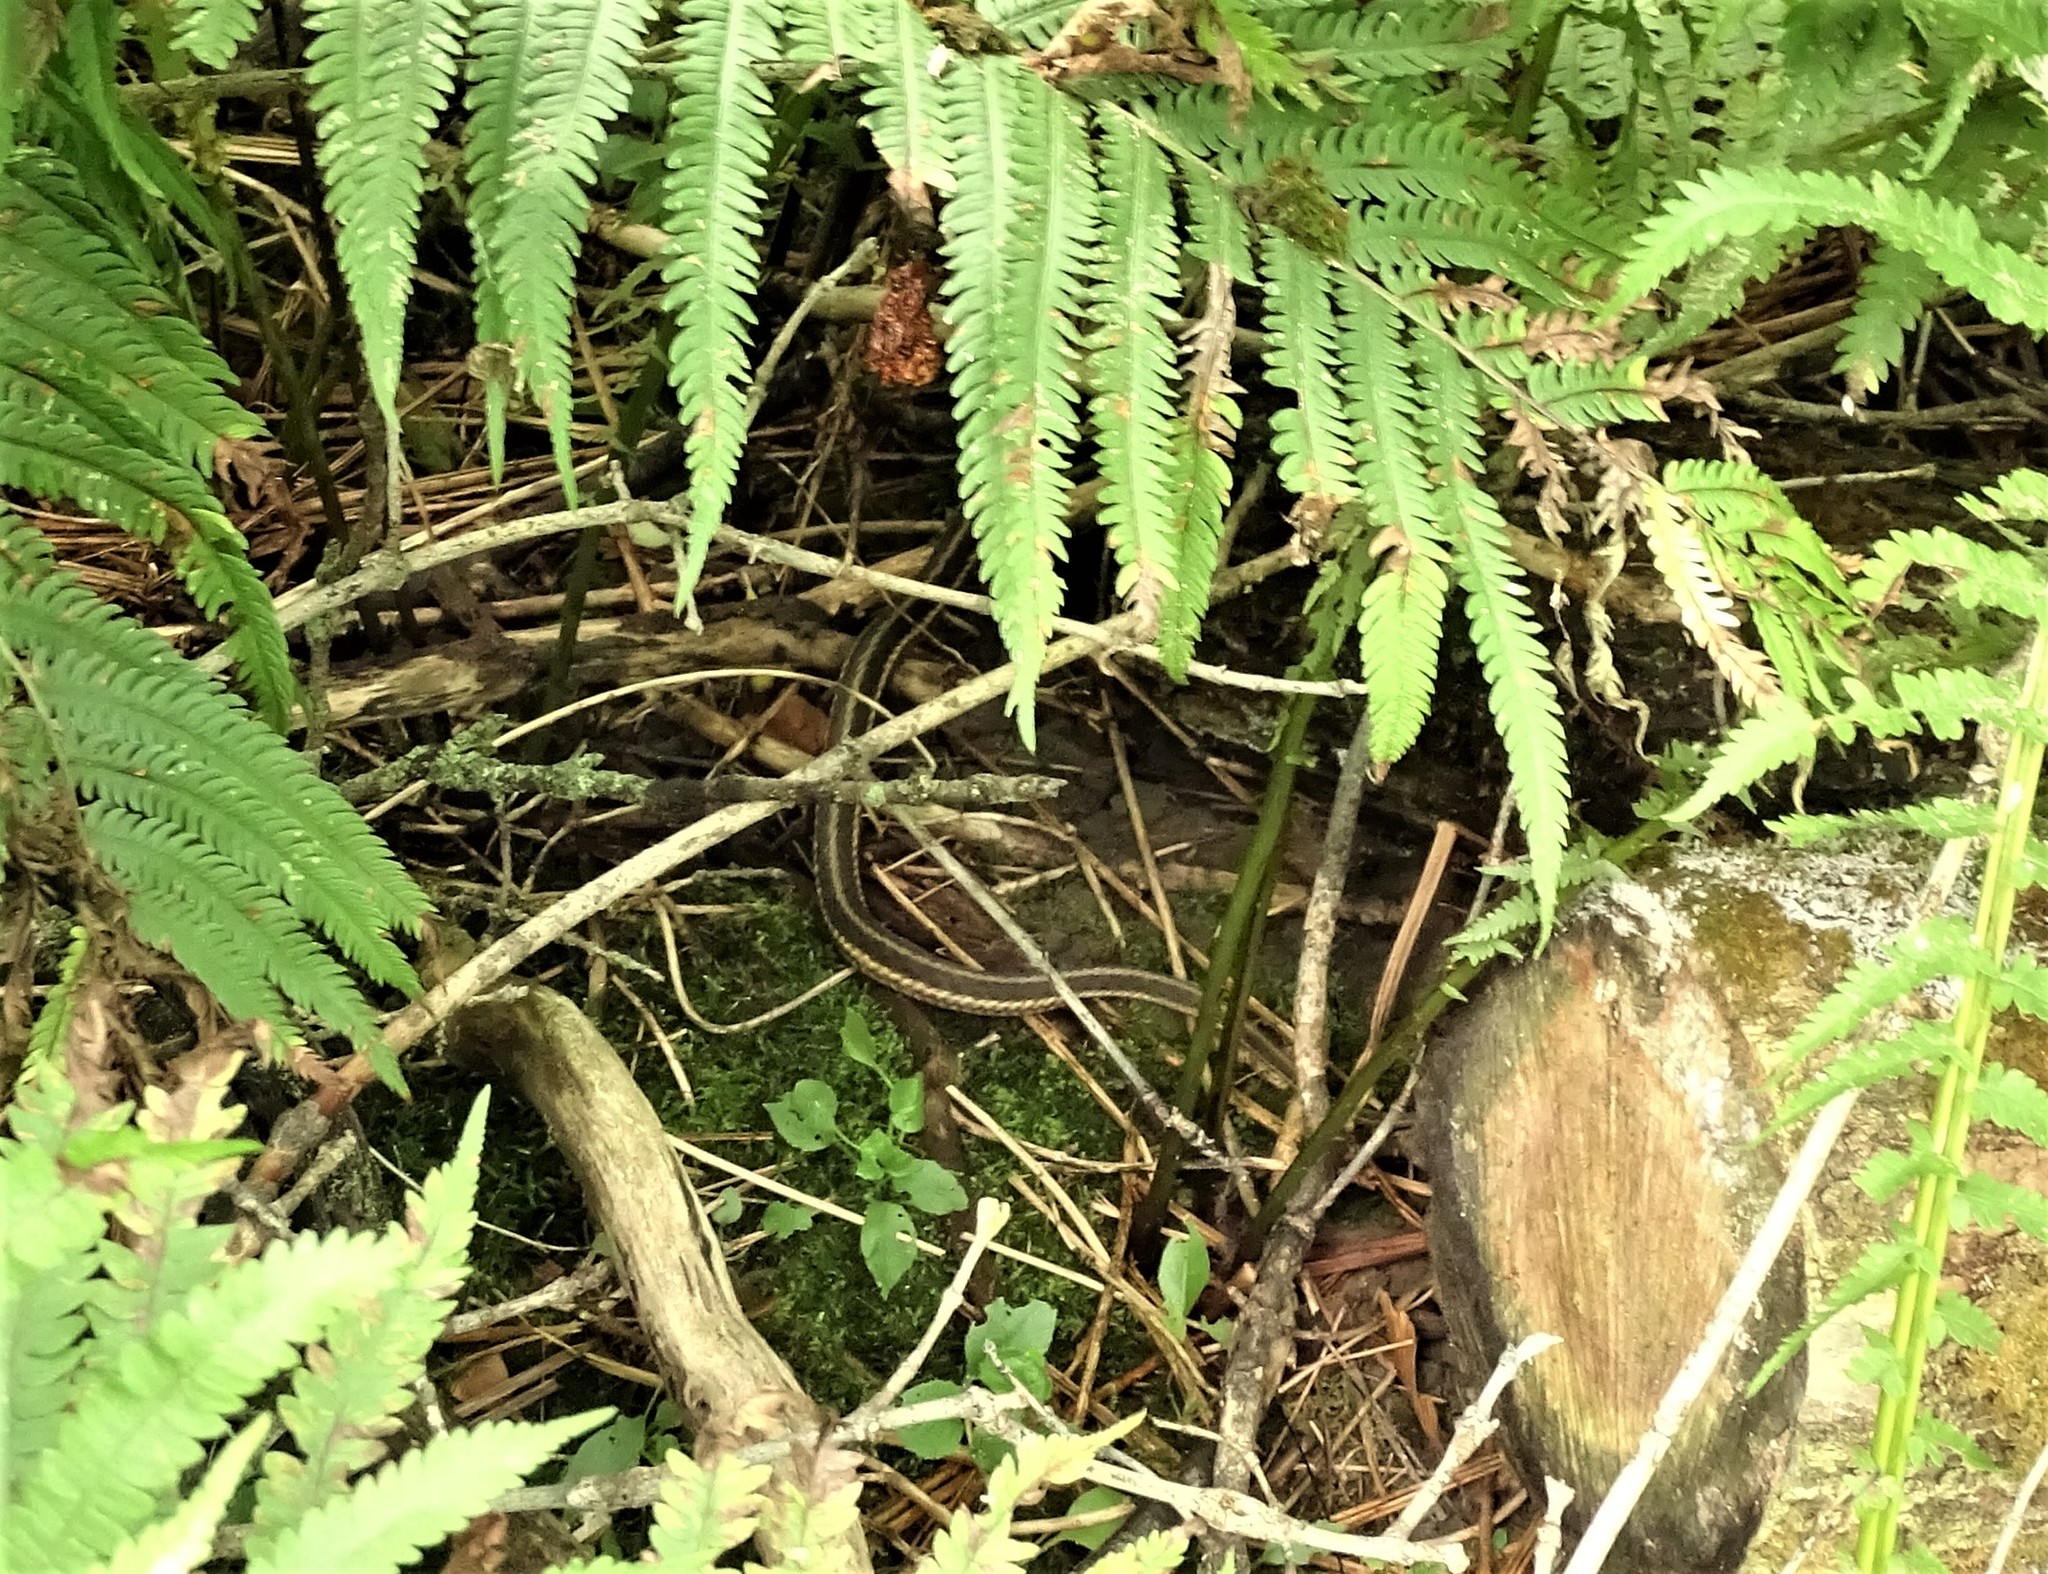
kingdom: Animalia
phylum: Chordata
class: Squamata
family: Colubridae
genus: Thamnophis
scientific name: Thamnophis sirtalis
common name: Common garter snake
